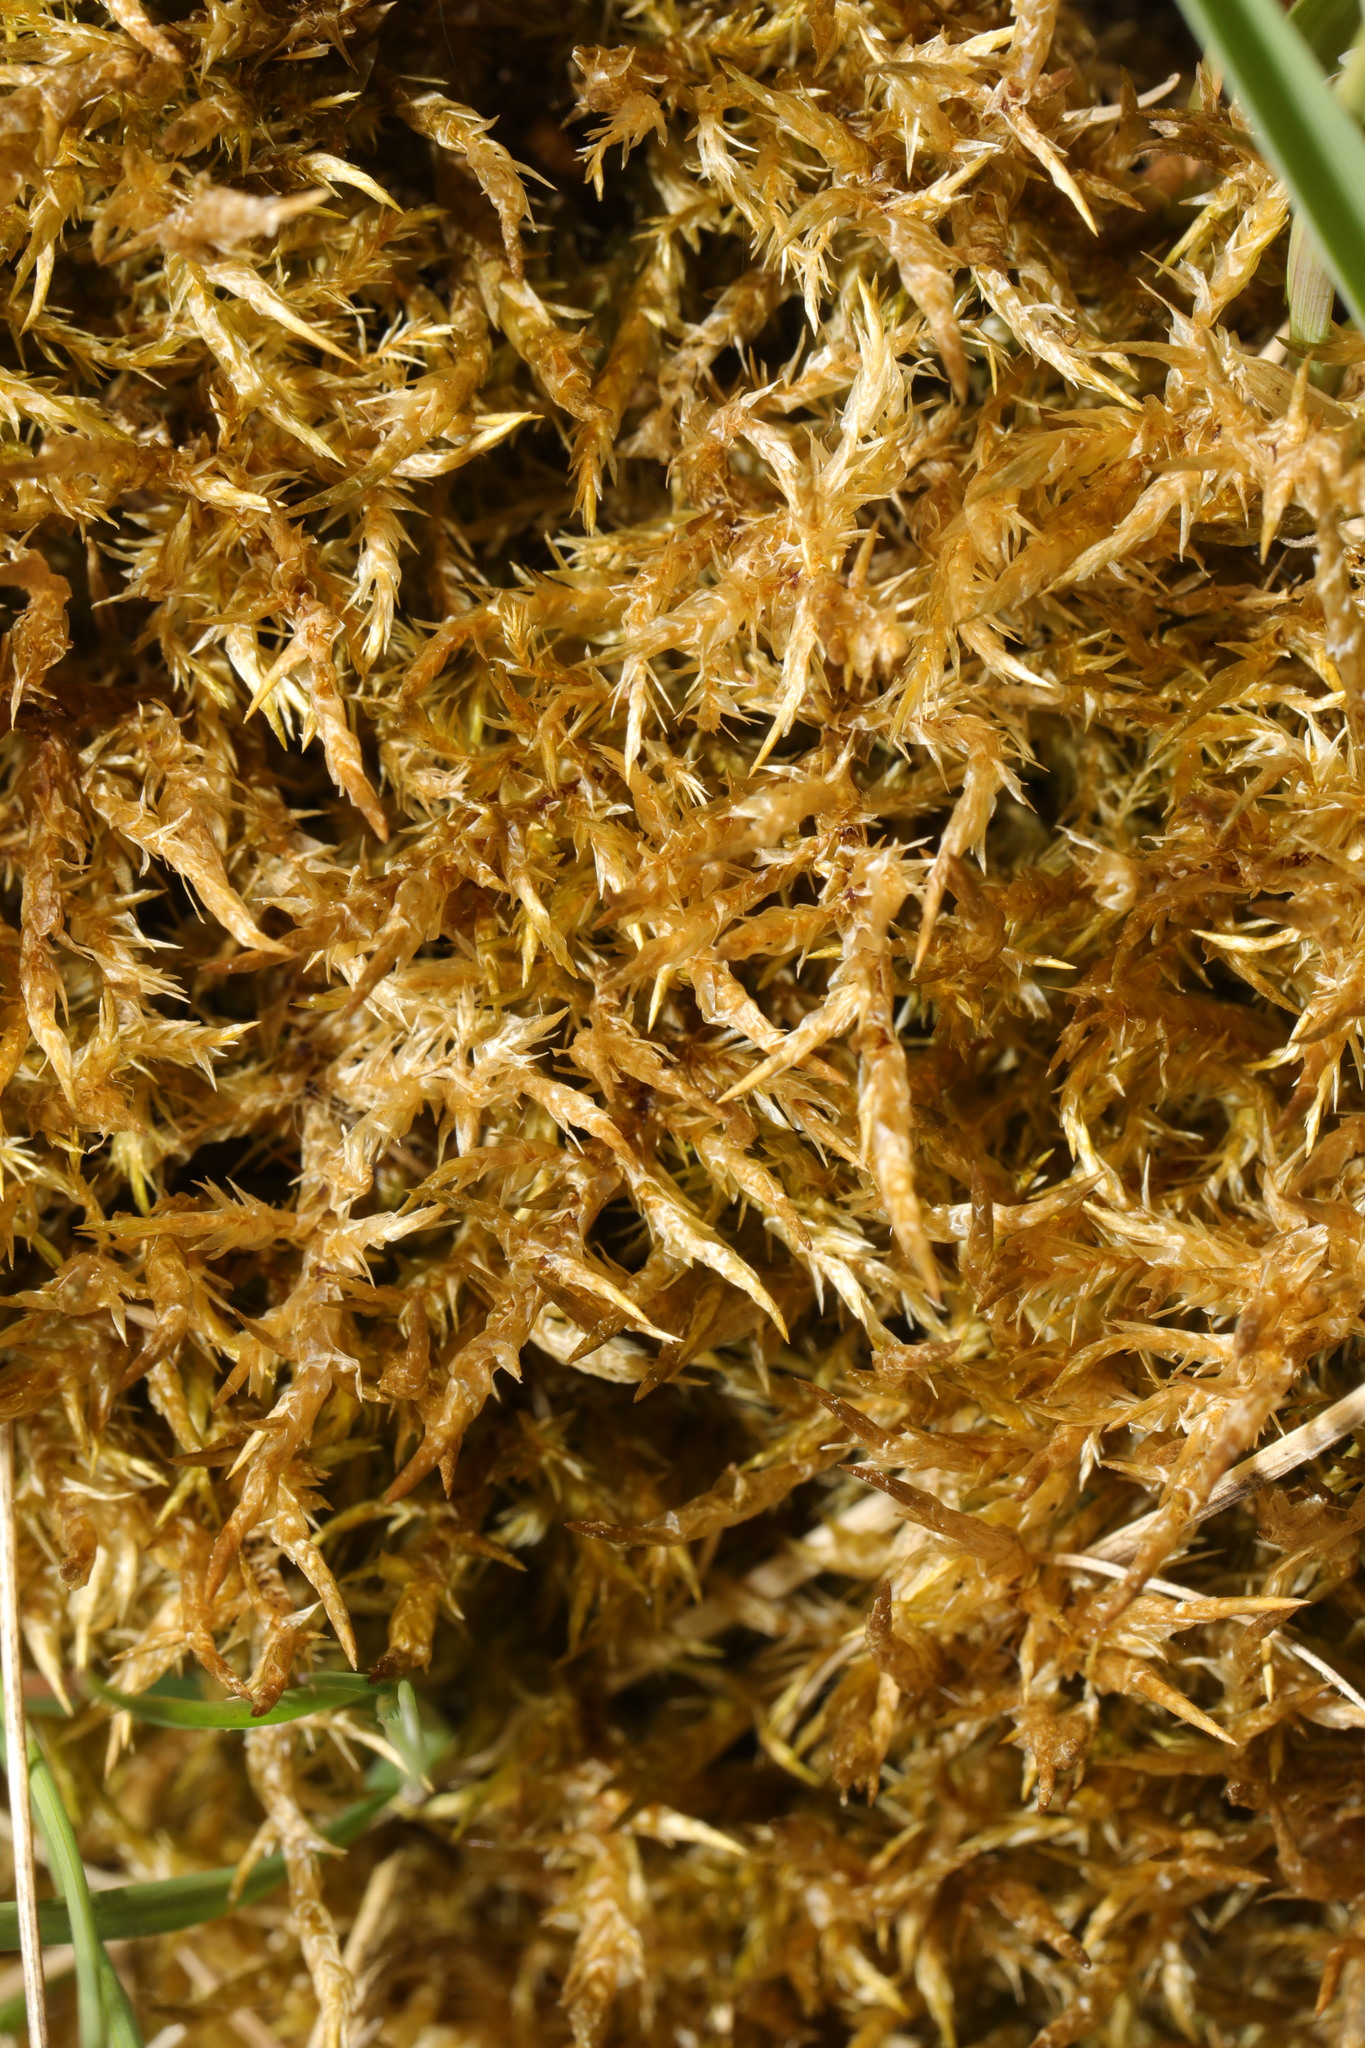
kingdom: Plantae
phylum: Bryophyta
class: Bryopsida
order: Hypnales
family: Pylaisiaceae
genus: Calliergonella
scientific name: Calliergonella cuspidata
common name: Common large wetland moss
